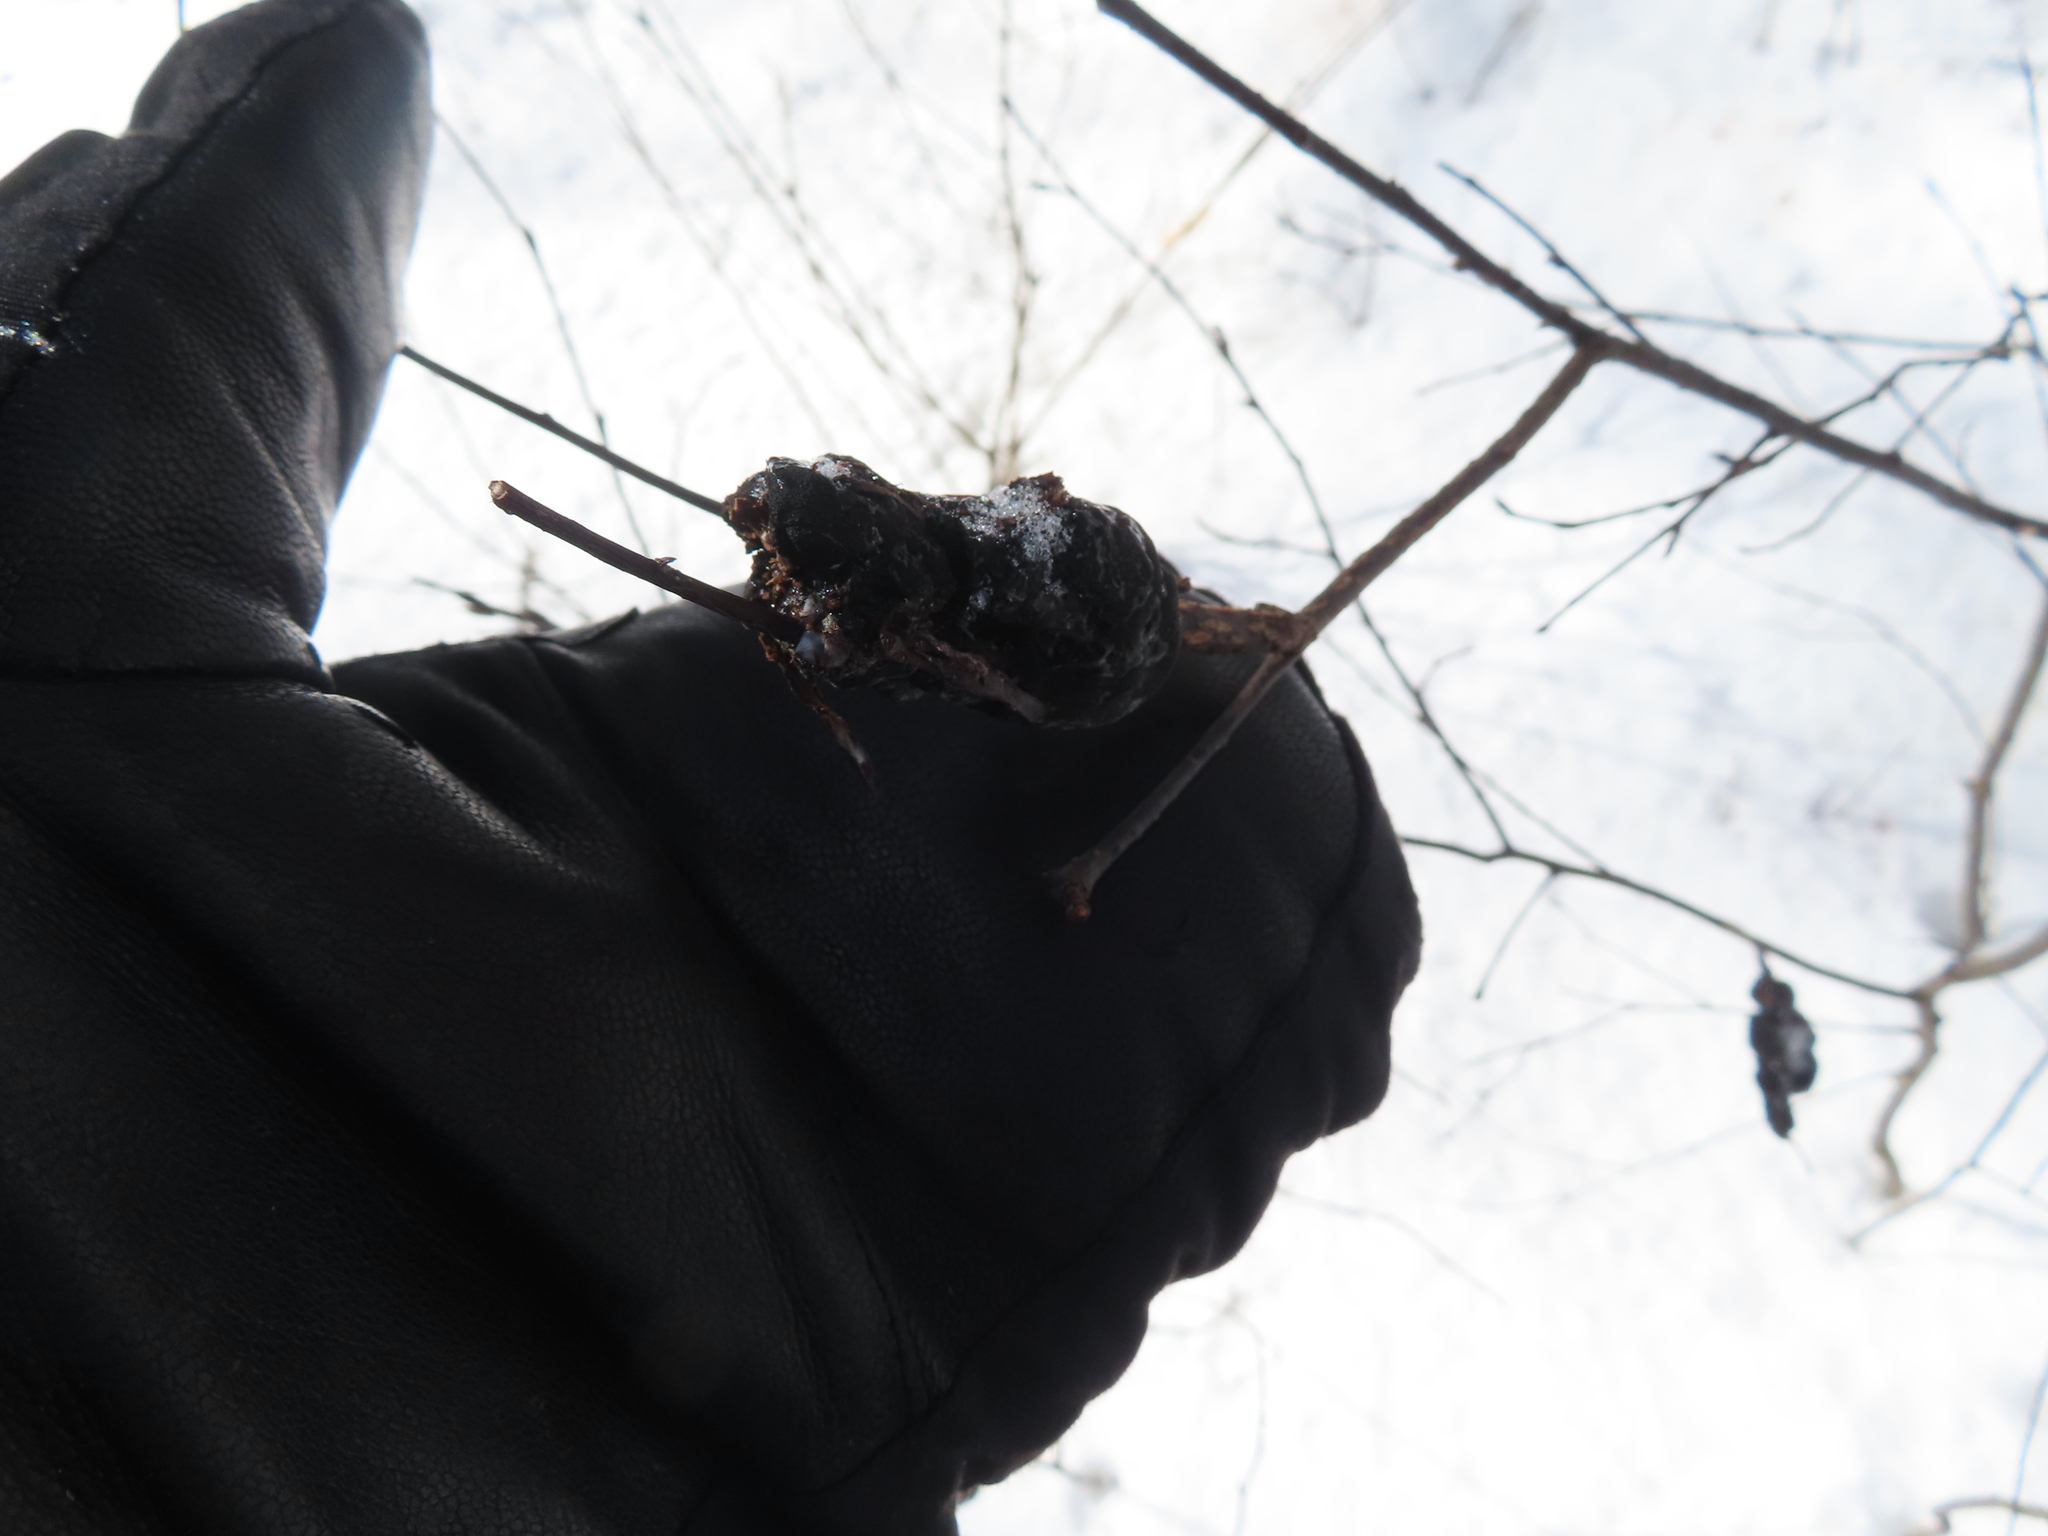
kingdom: Fungi
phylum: Ascomycota
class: Dothideomycetes
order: Venturiales
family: Venturiaceae
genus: Apiosporina
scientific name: Apiosporina morbosa
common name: Black knot
